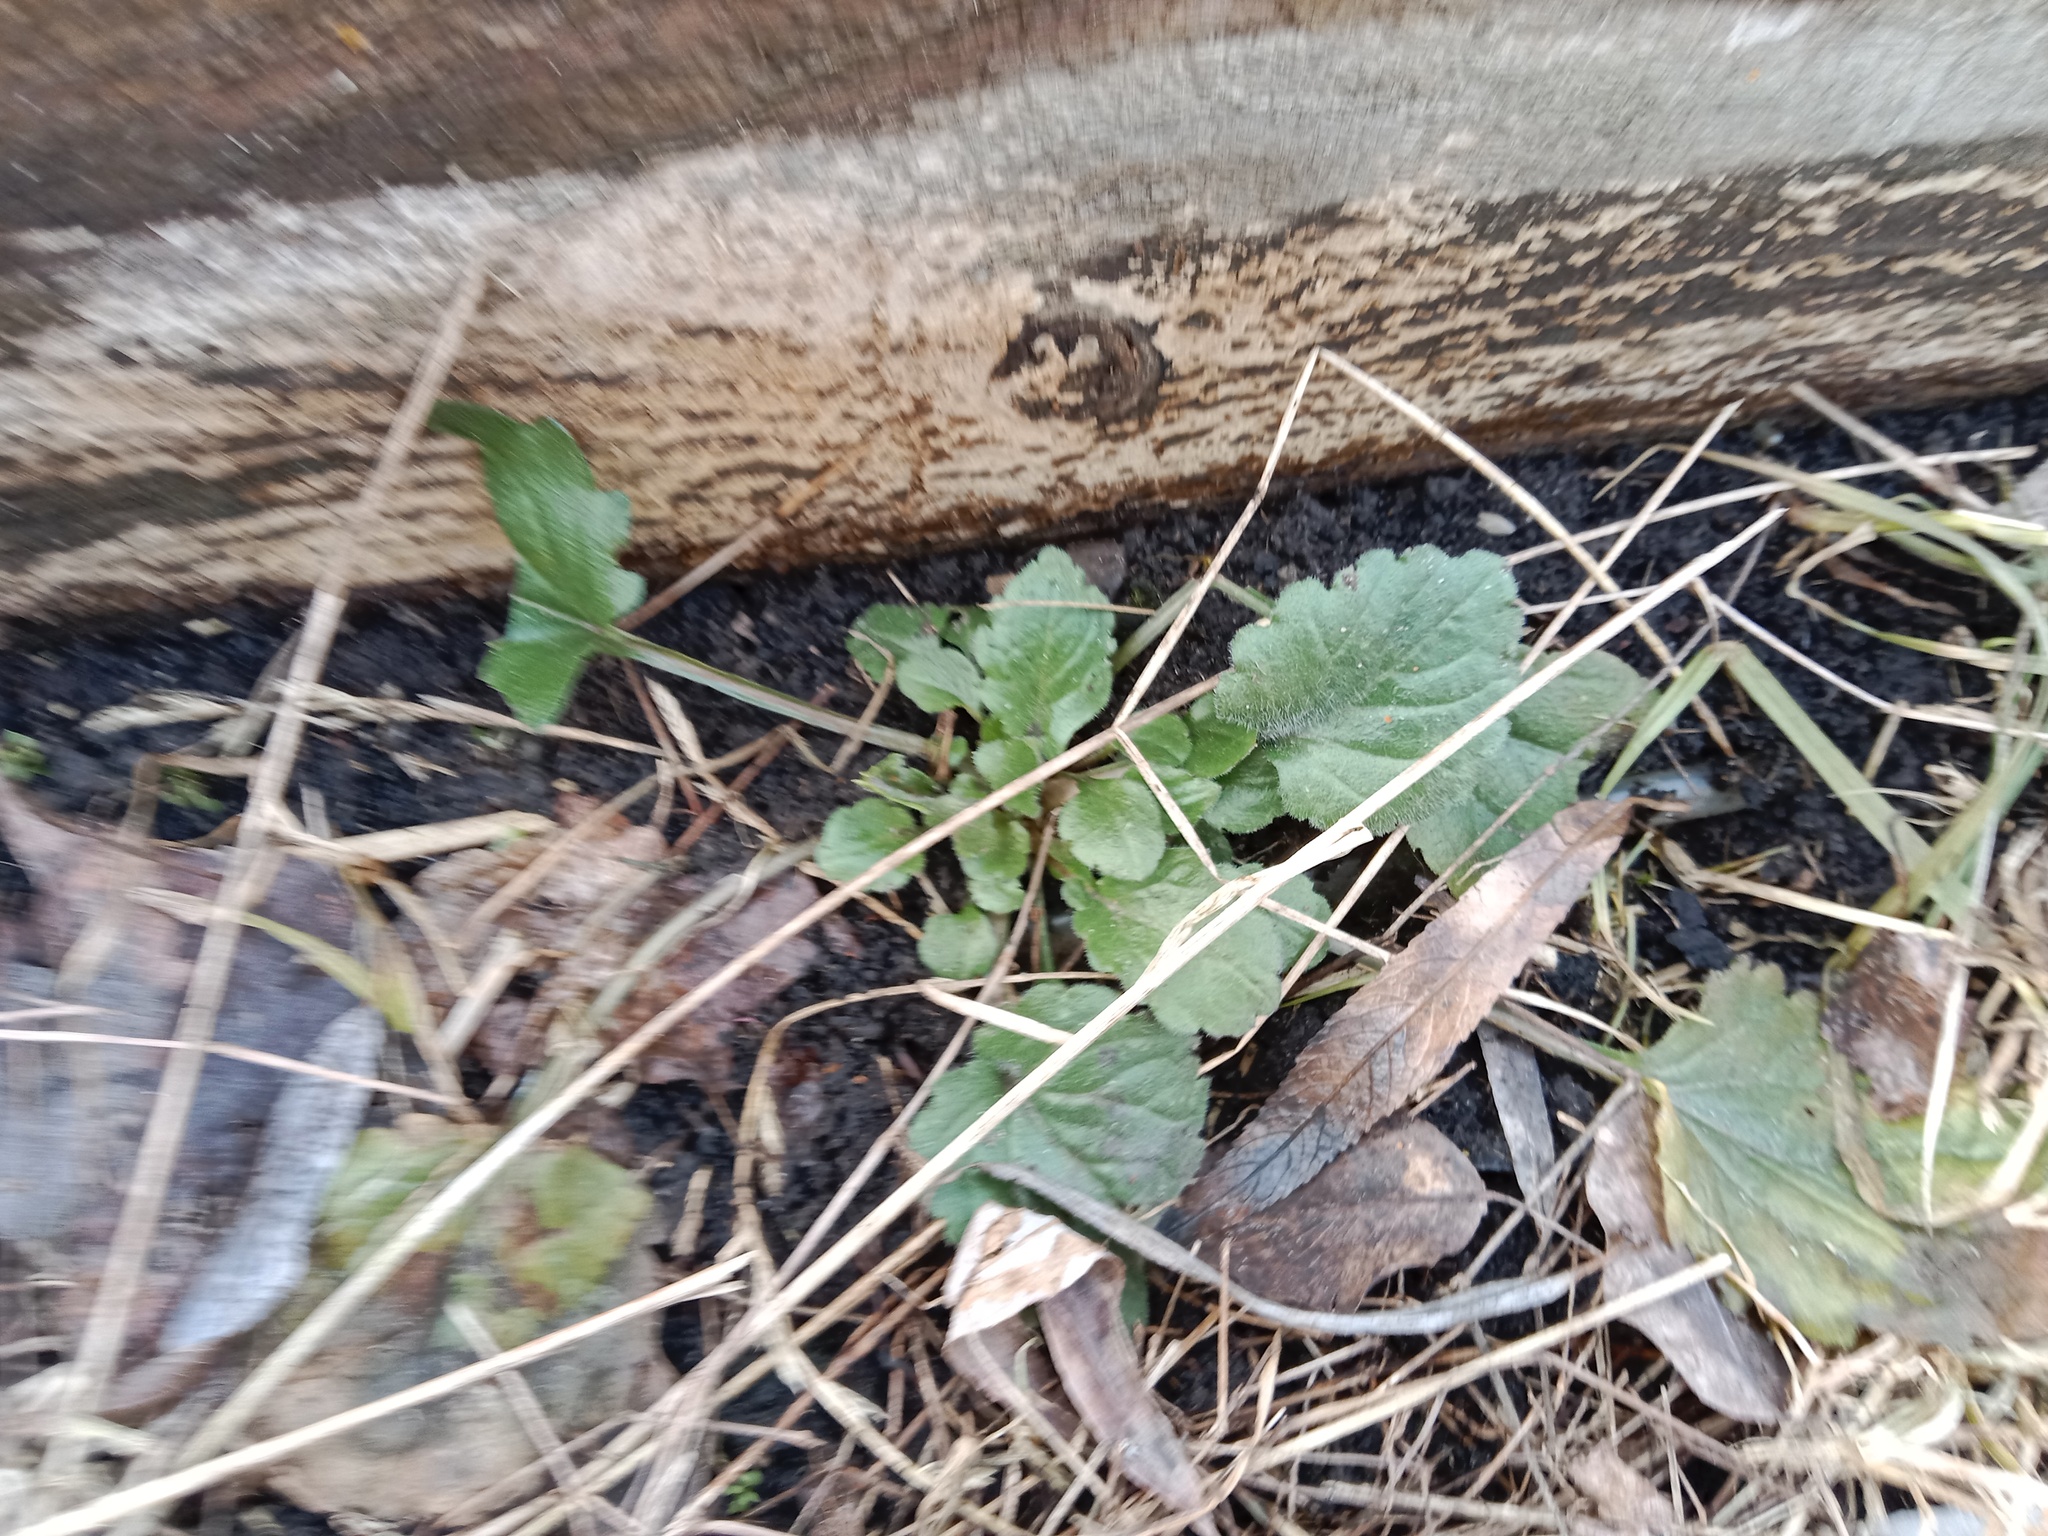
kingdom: Plantae
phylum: Tracheophyta
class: Magnoliopsida
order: Asterales
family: Asteraceae
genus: Erigeron
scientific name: Erigeron annuus
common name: Tall fleabane
